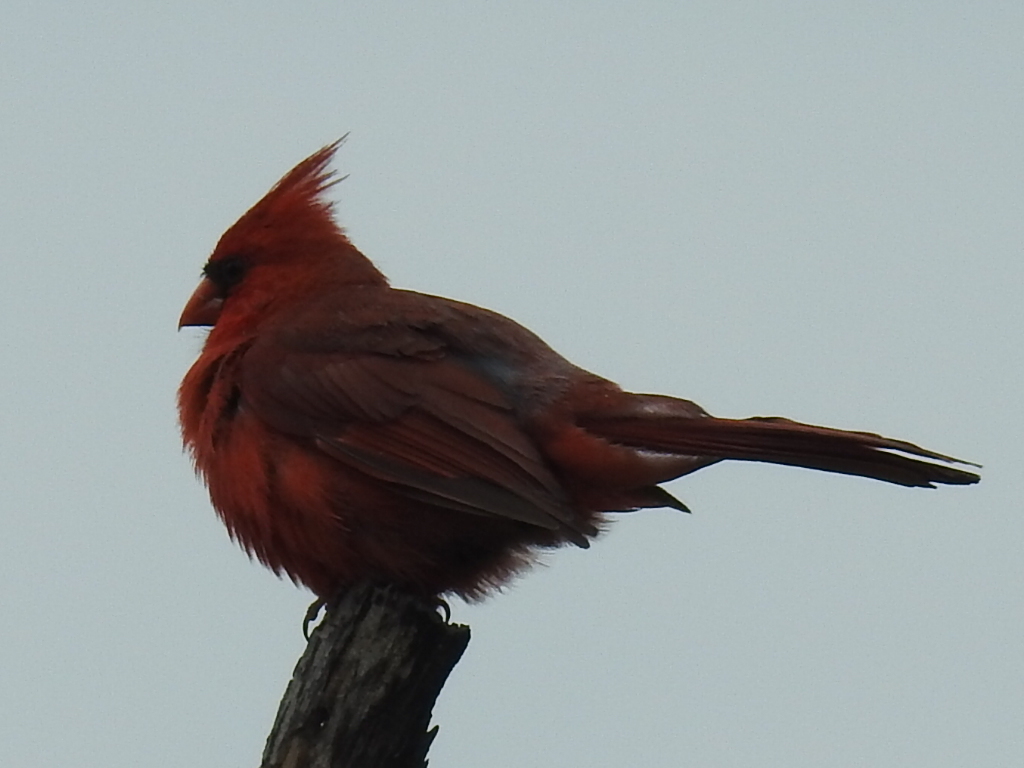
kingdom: Animalia
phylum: Chordata
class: Aves
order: Passeriformes
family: Cardinalidae
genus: Cardinalis
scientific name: Cardinalis cardinalis
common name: Northern cardinal
